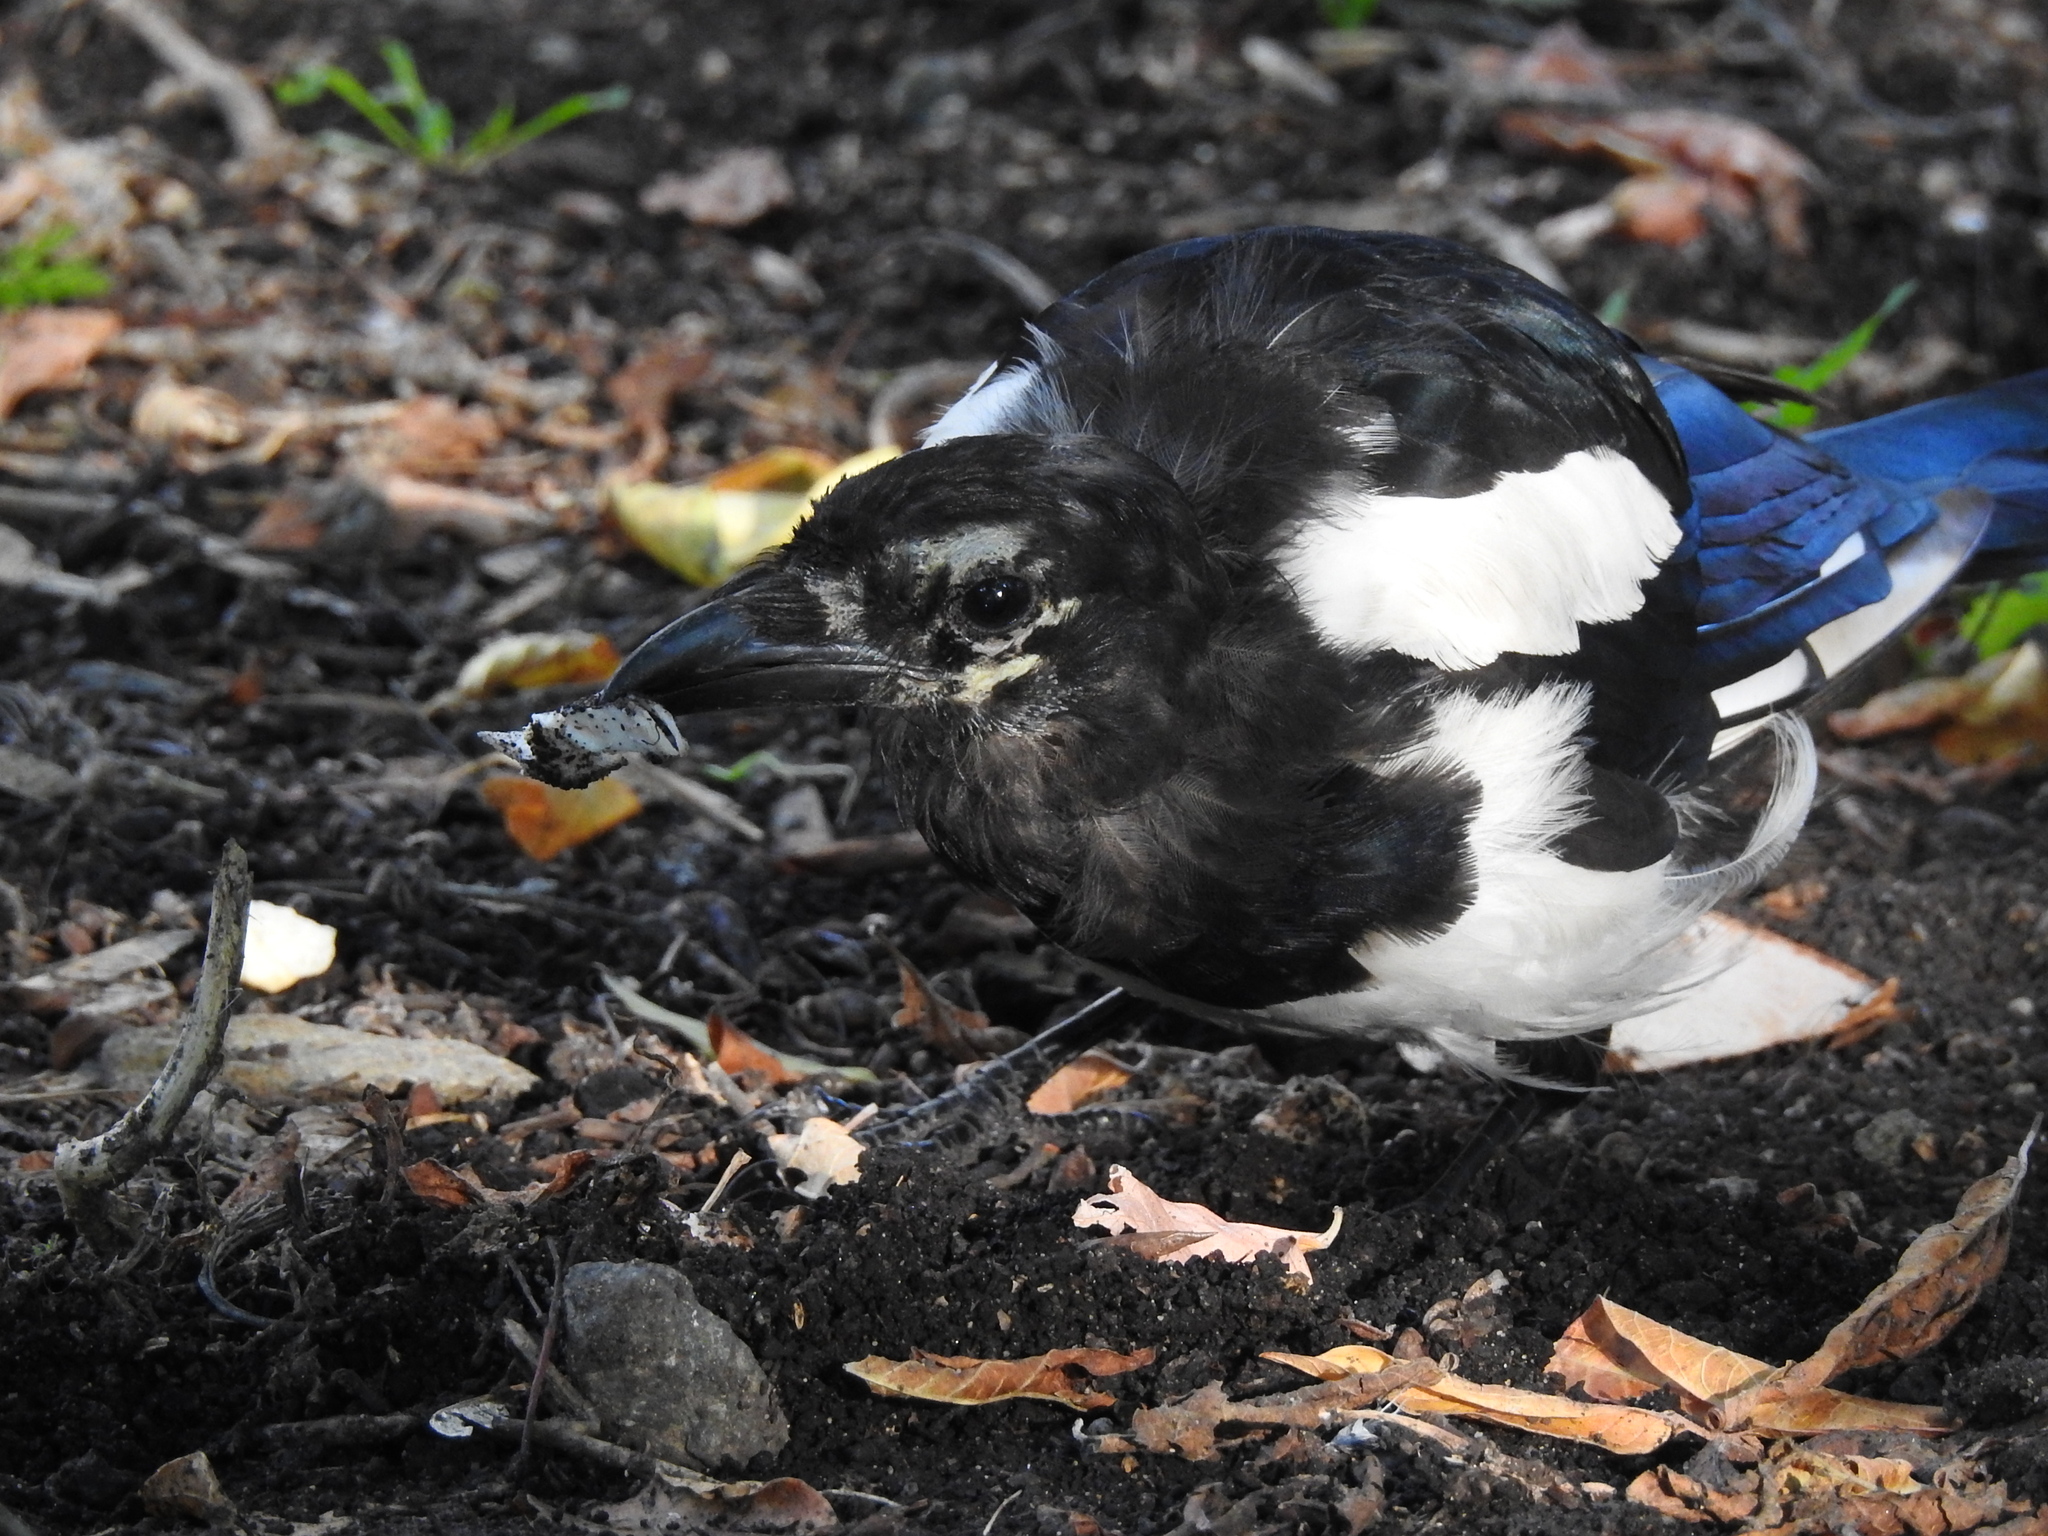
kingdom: Animalia
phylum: Chordata
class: Aves
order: Passeriformes
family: Corvidae
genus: Pica
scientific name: Pica pica
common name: Eurasian magpie
